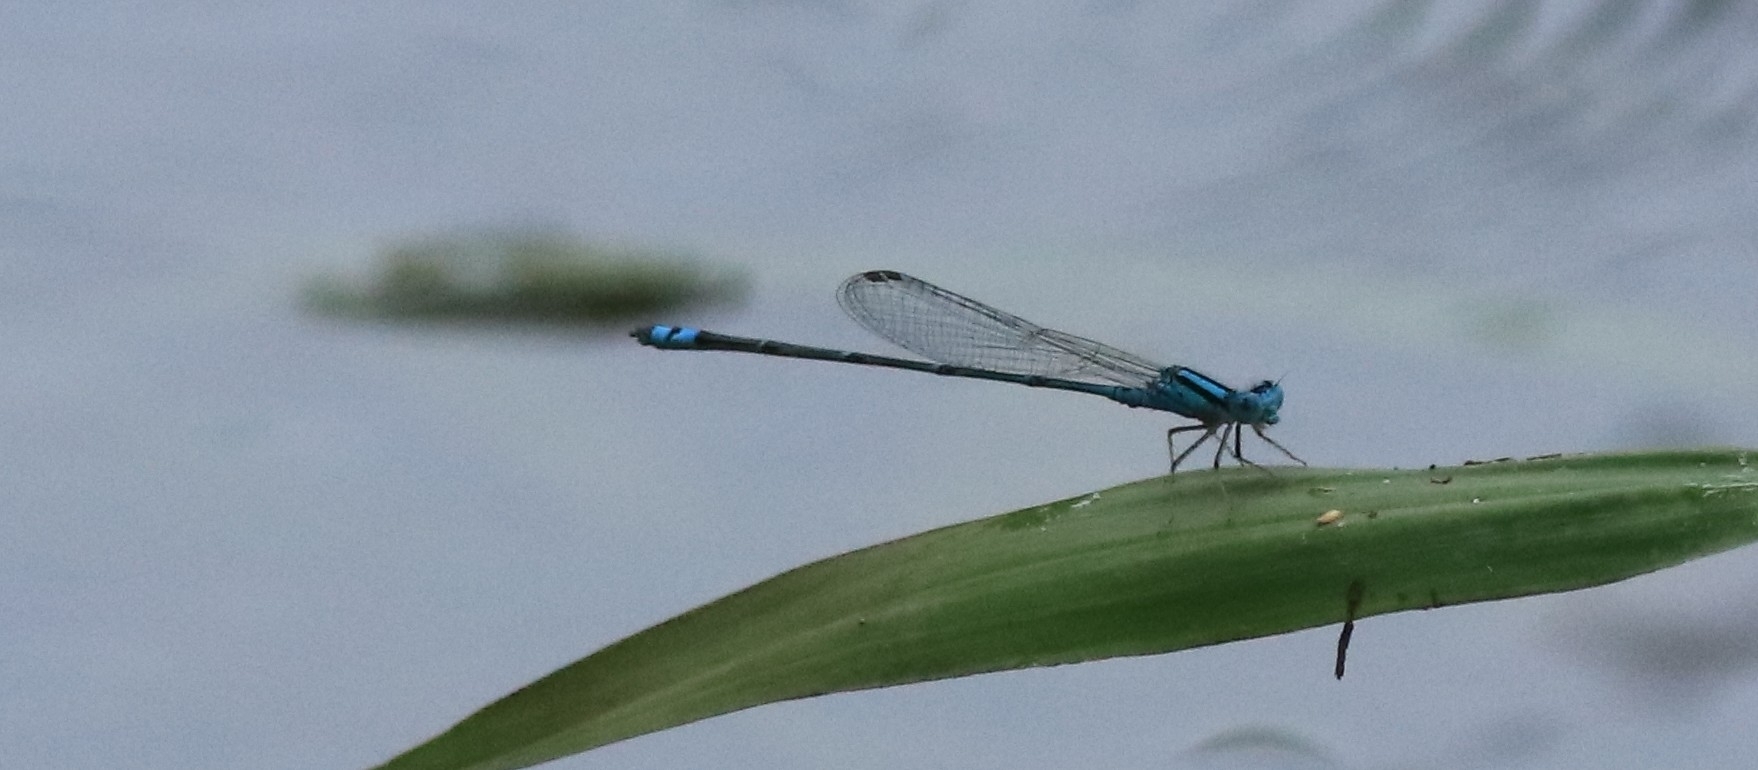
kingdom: Animalia
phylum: Arthropoda
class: Insecta
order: Odonata
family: Coenagrionidae
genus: Pseudagrion
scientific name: Pseudagrion microcephalum
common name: Blue riverdamsel
